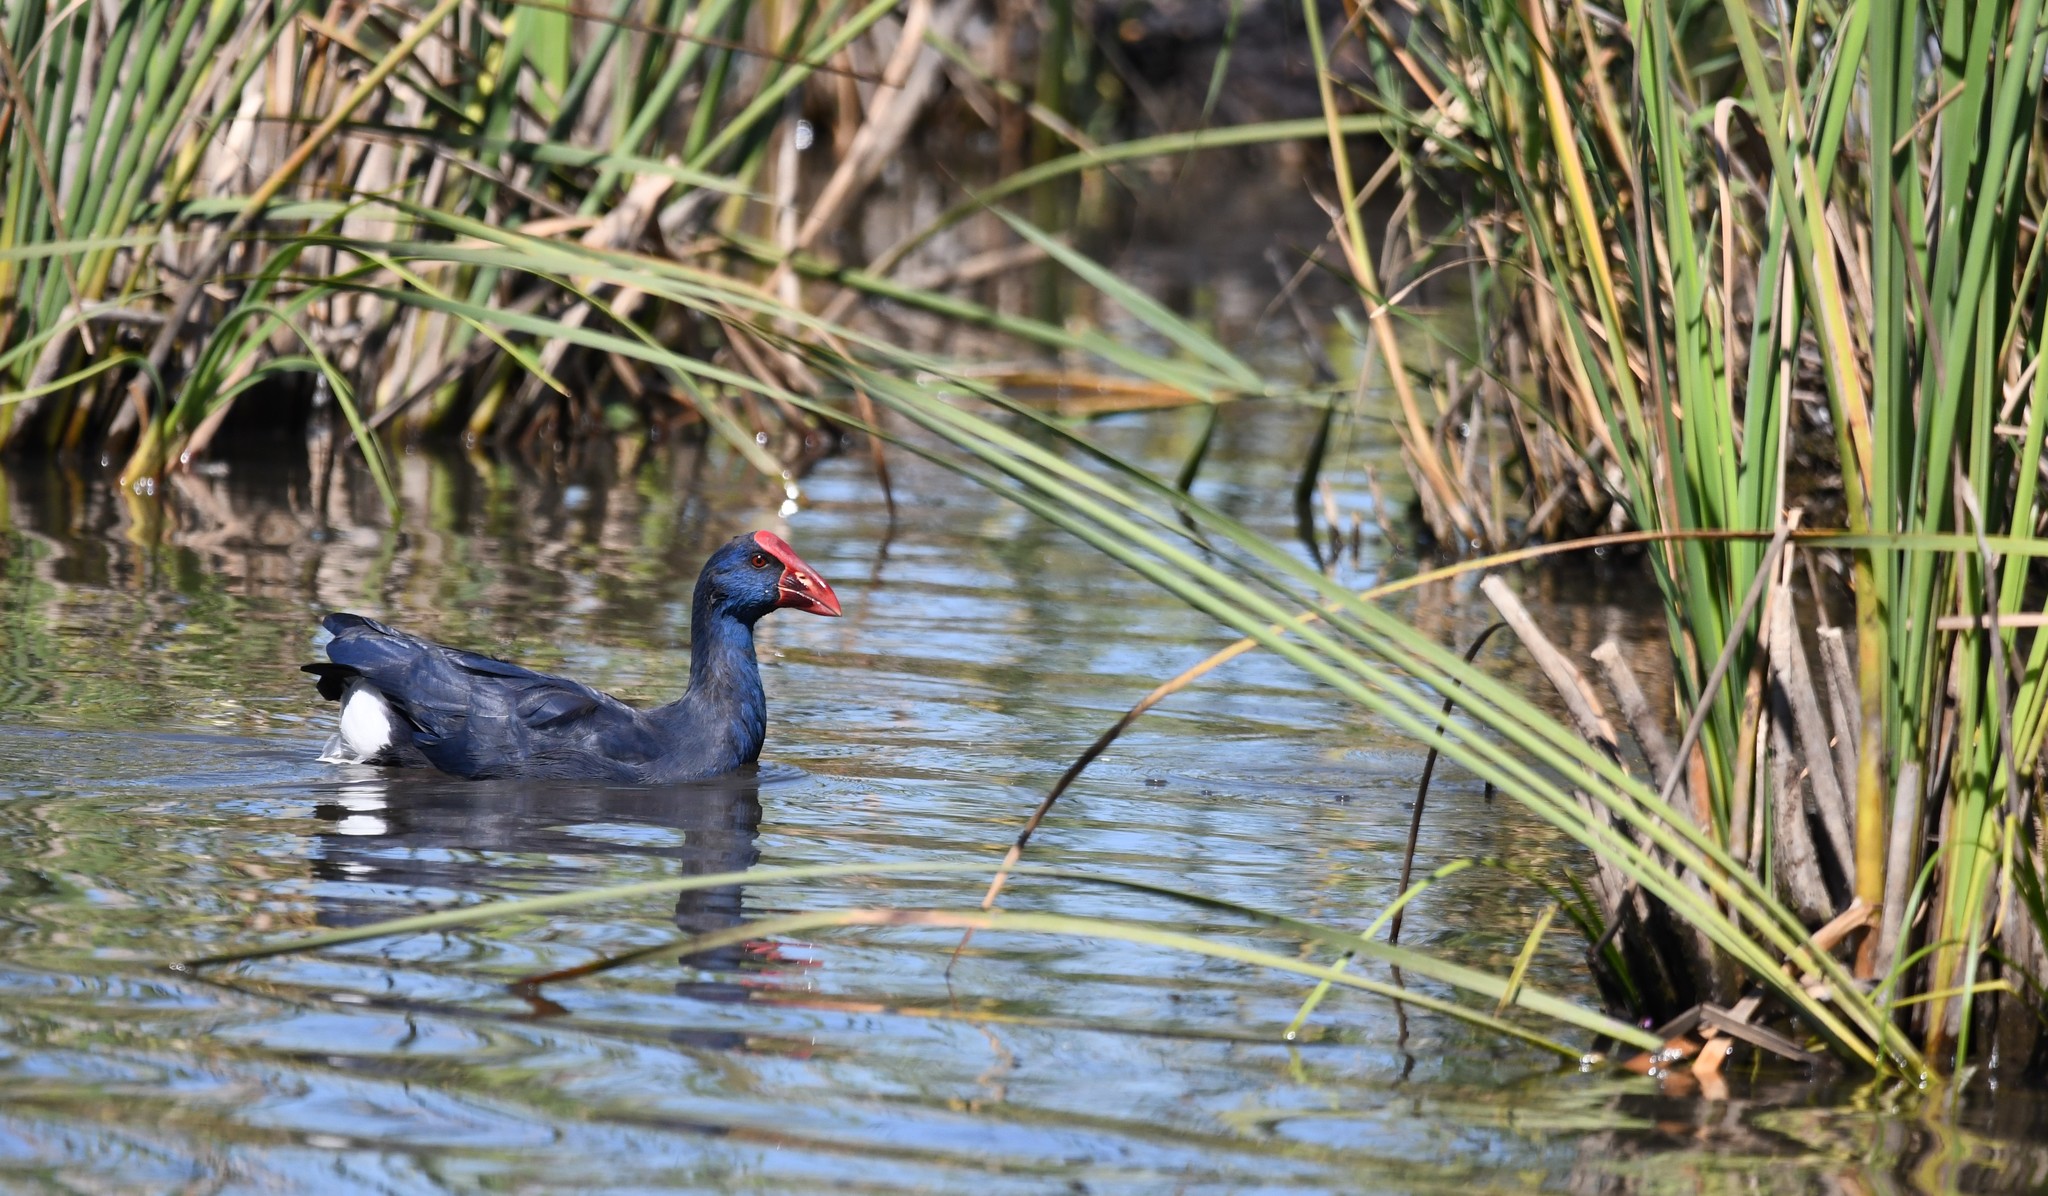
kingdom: Animalia
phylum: Chordata
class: Aves
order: Gruiformes
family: Rallidae
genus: Porphyrio
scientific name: Porphyrio porphyrio
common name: Purple swamphen
